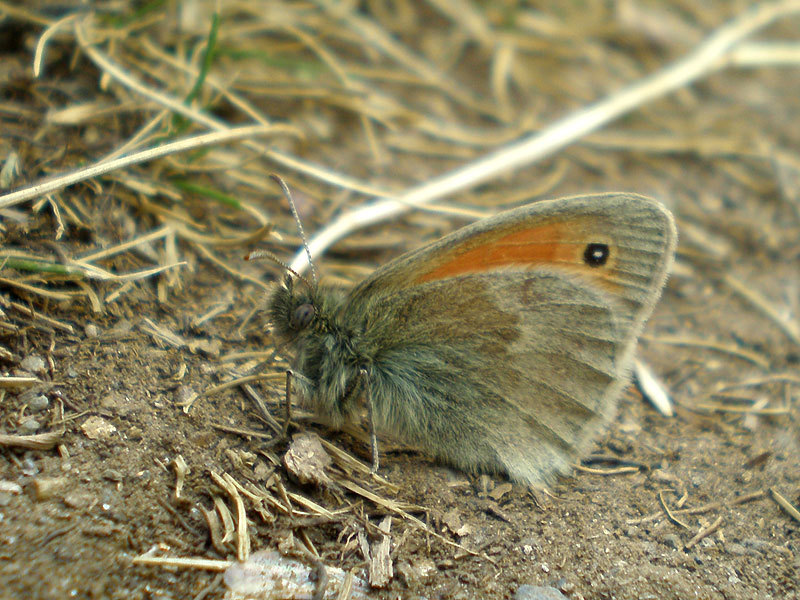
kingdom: Animalia
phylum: Arthropoda
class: Insecta
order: Lepidoptera
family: Nymphalidae
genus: Coenonympha
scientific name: Coenonympha pamphilus
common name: Small heath
